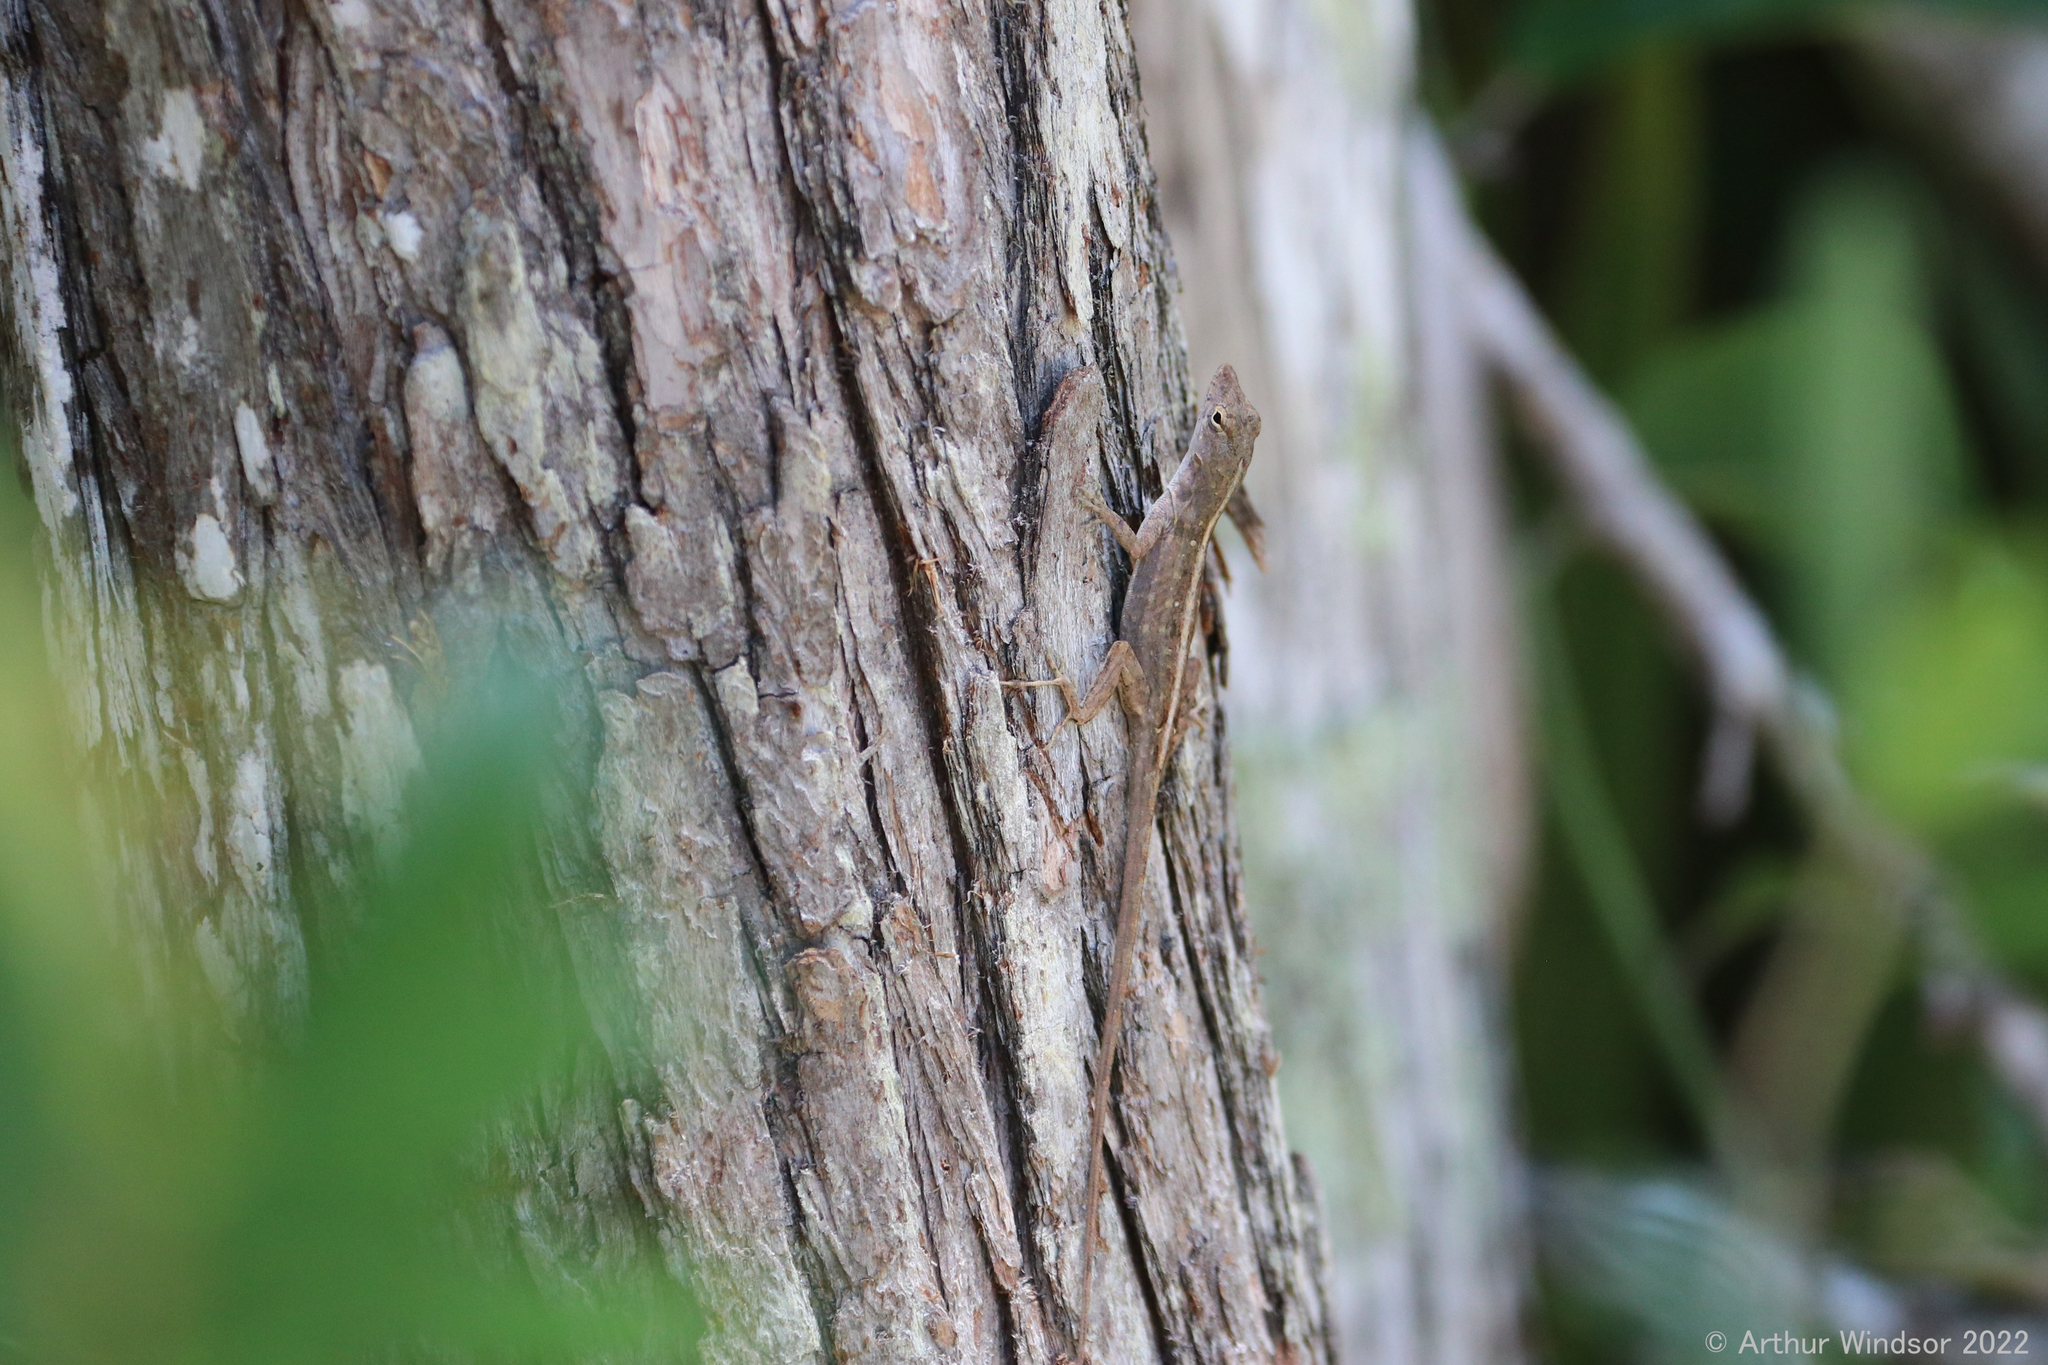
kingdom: Animalia
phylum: Chordata
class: Squamata
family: Dactyloidae
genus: Anolis
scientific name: Anolis sagrei
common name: Brown anole
